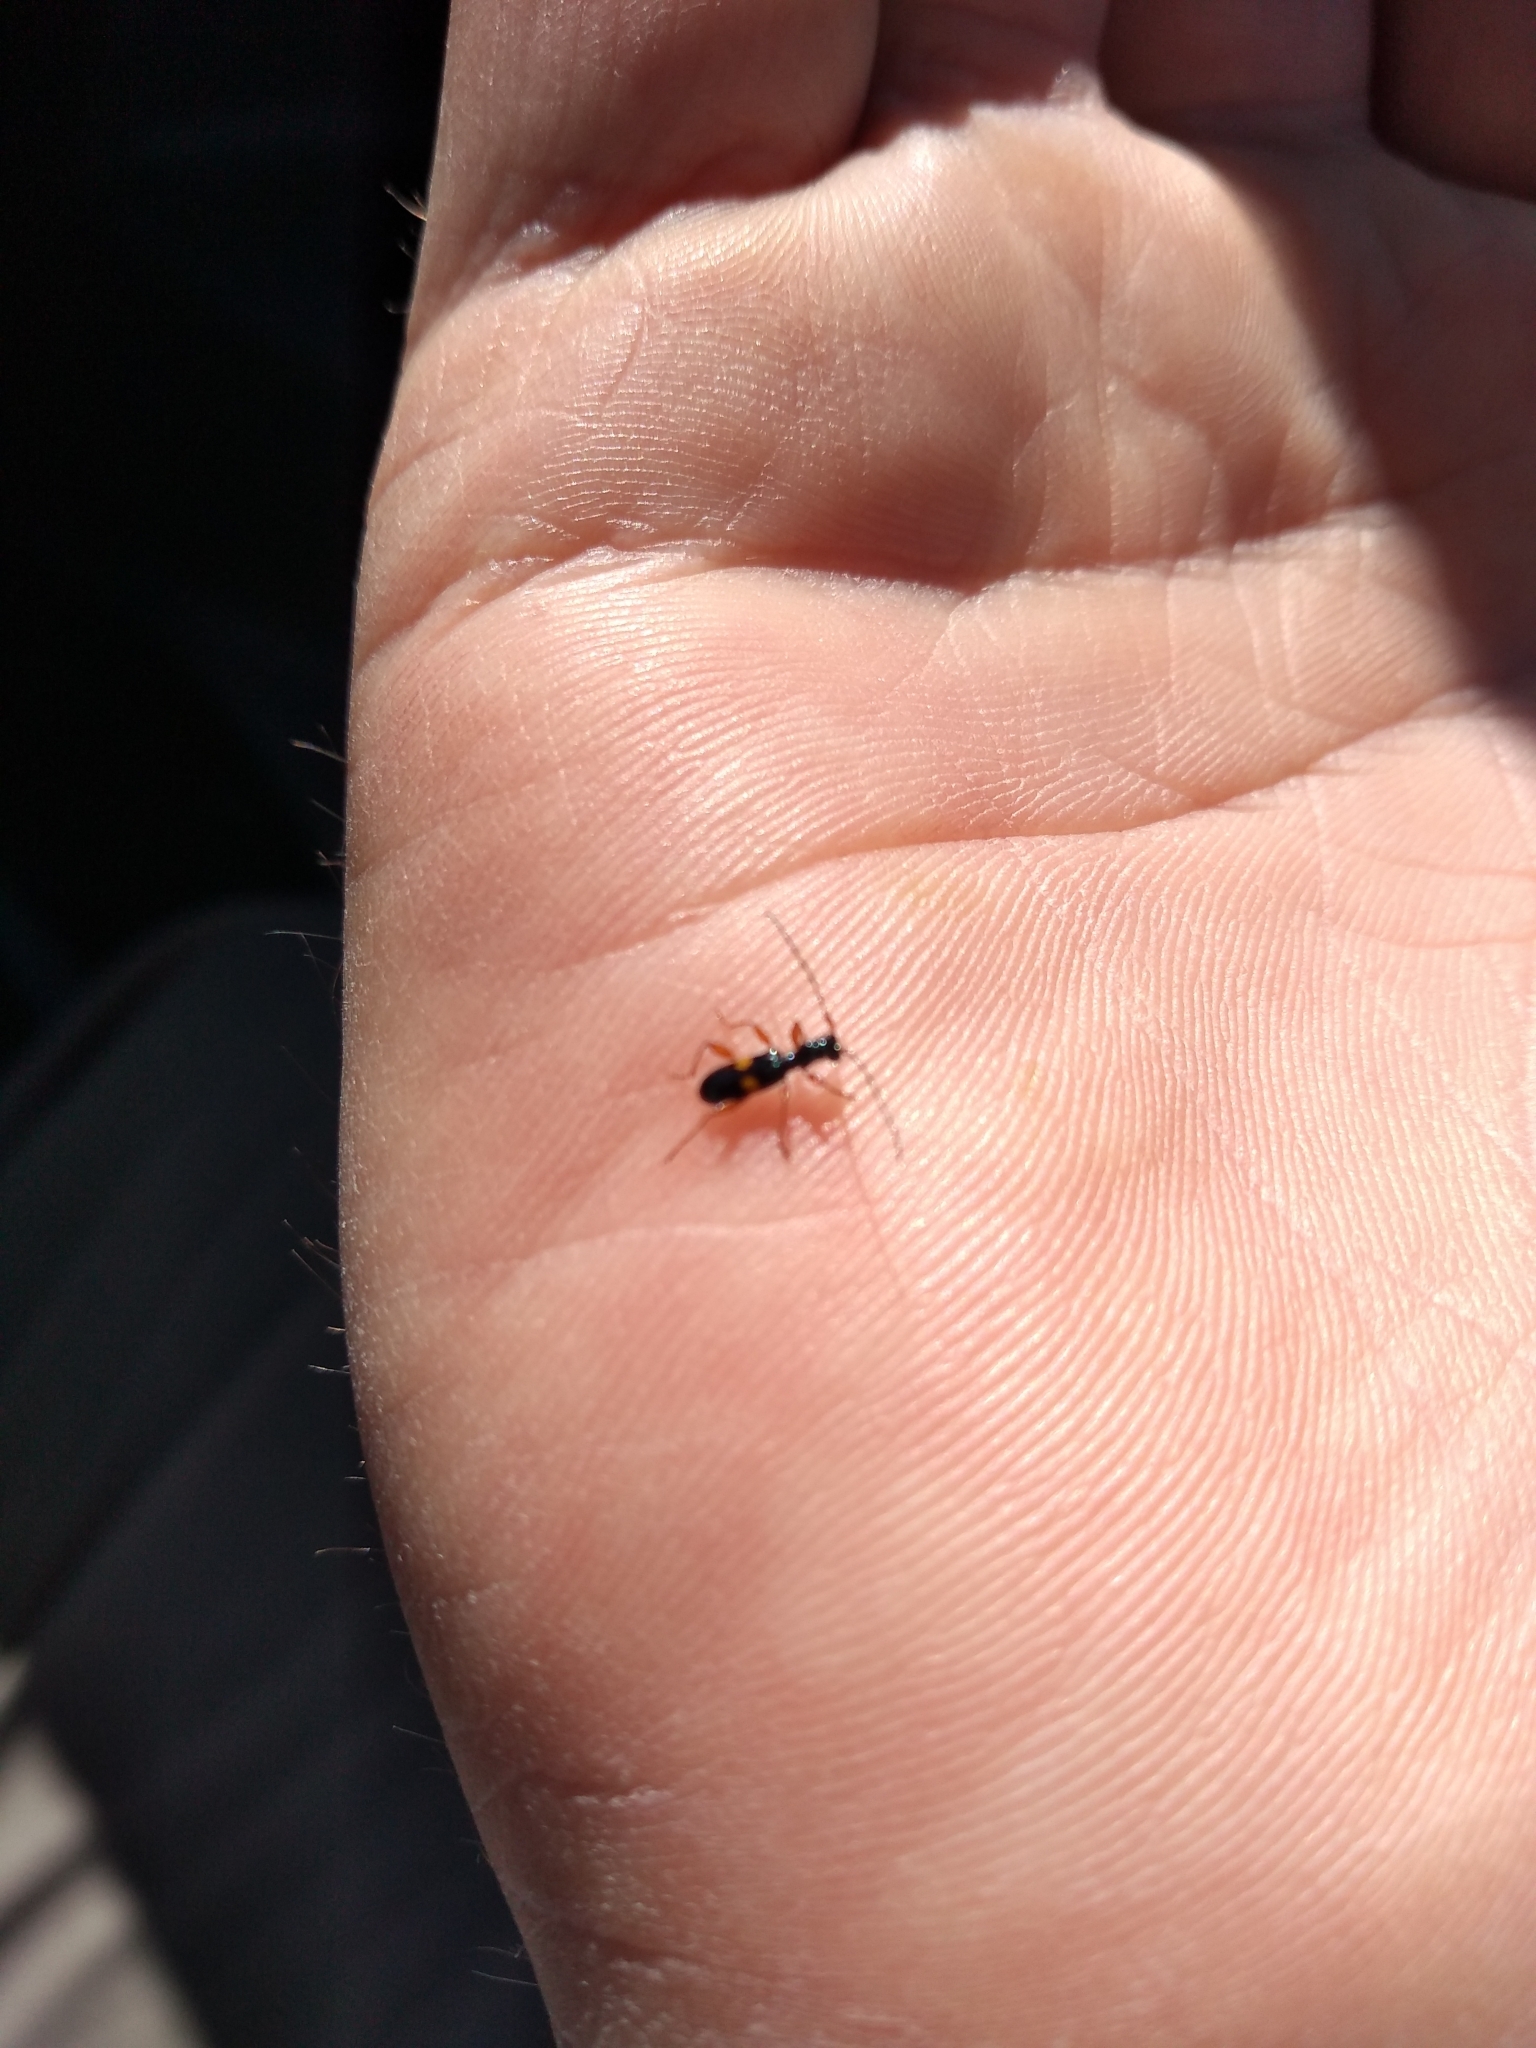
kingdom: Animalia
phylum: Arthropoda
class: Insecta
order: Coleoptera
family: Cerambycidae
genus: Zorion
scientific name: Zorion kaikouraiensis
